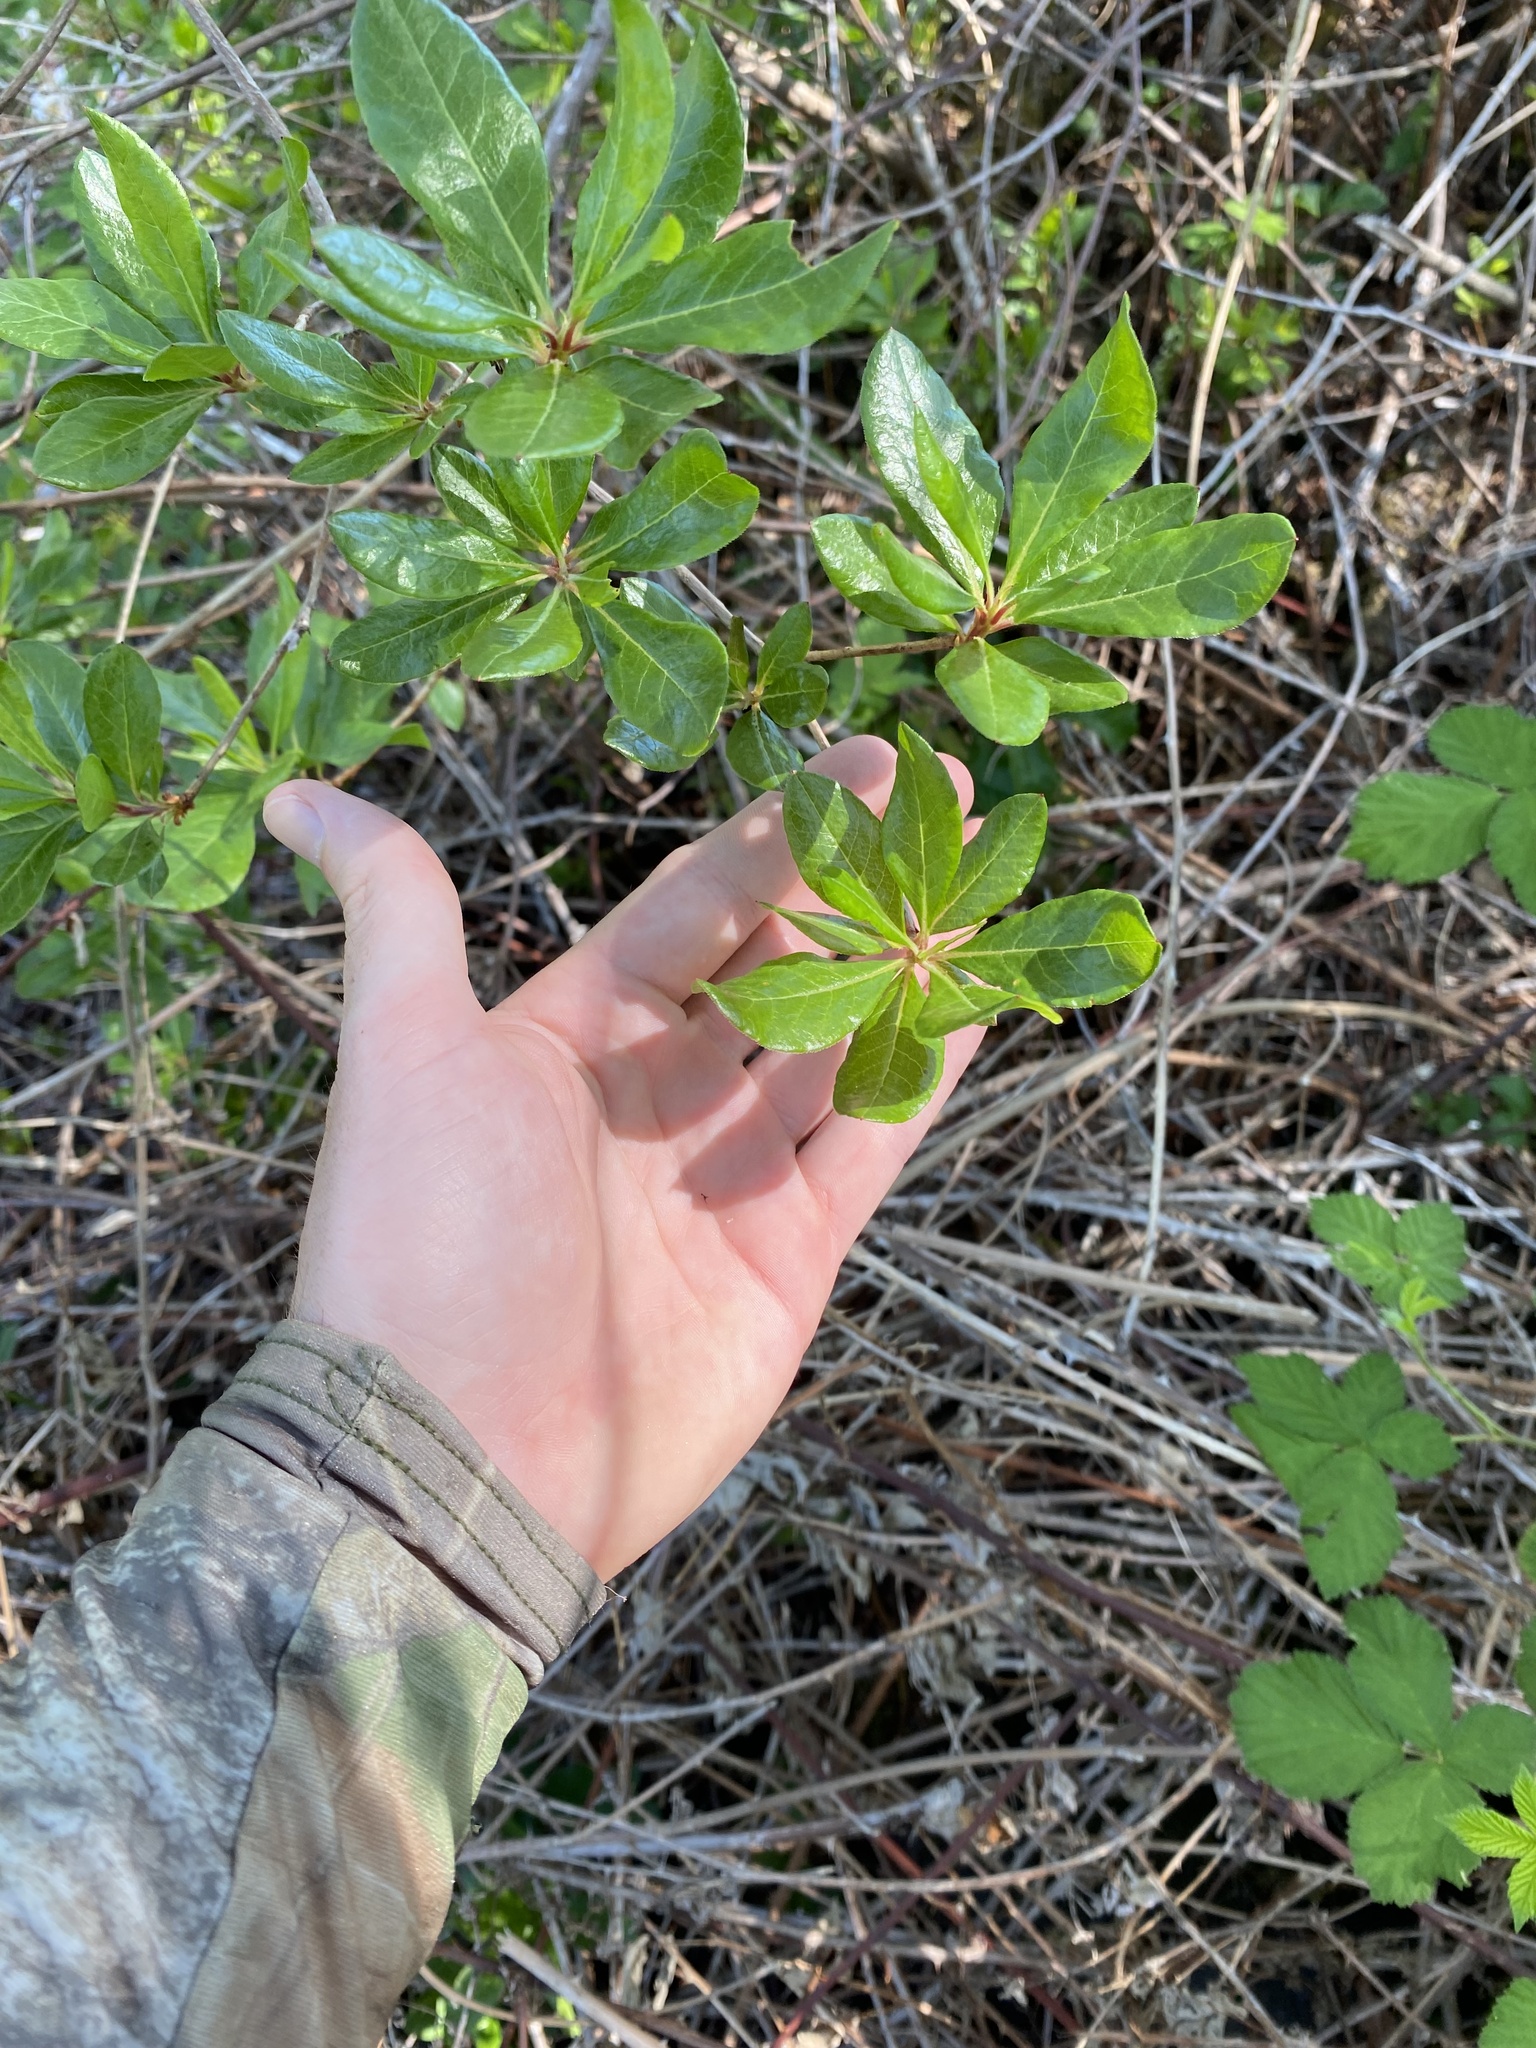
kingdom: Plantae
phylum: Tracheophyta
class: Magnoliopsida
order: Ericales
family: Ericaceae
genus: Rhododendron
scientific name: Rhododendron occidentale
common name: Western azalea
